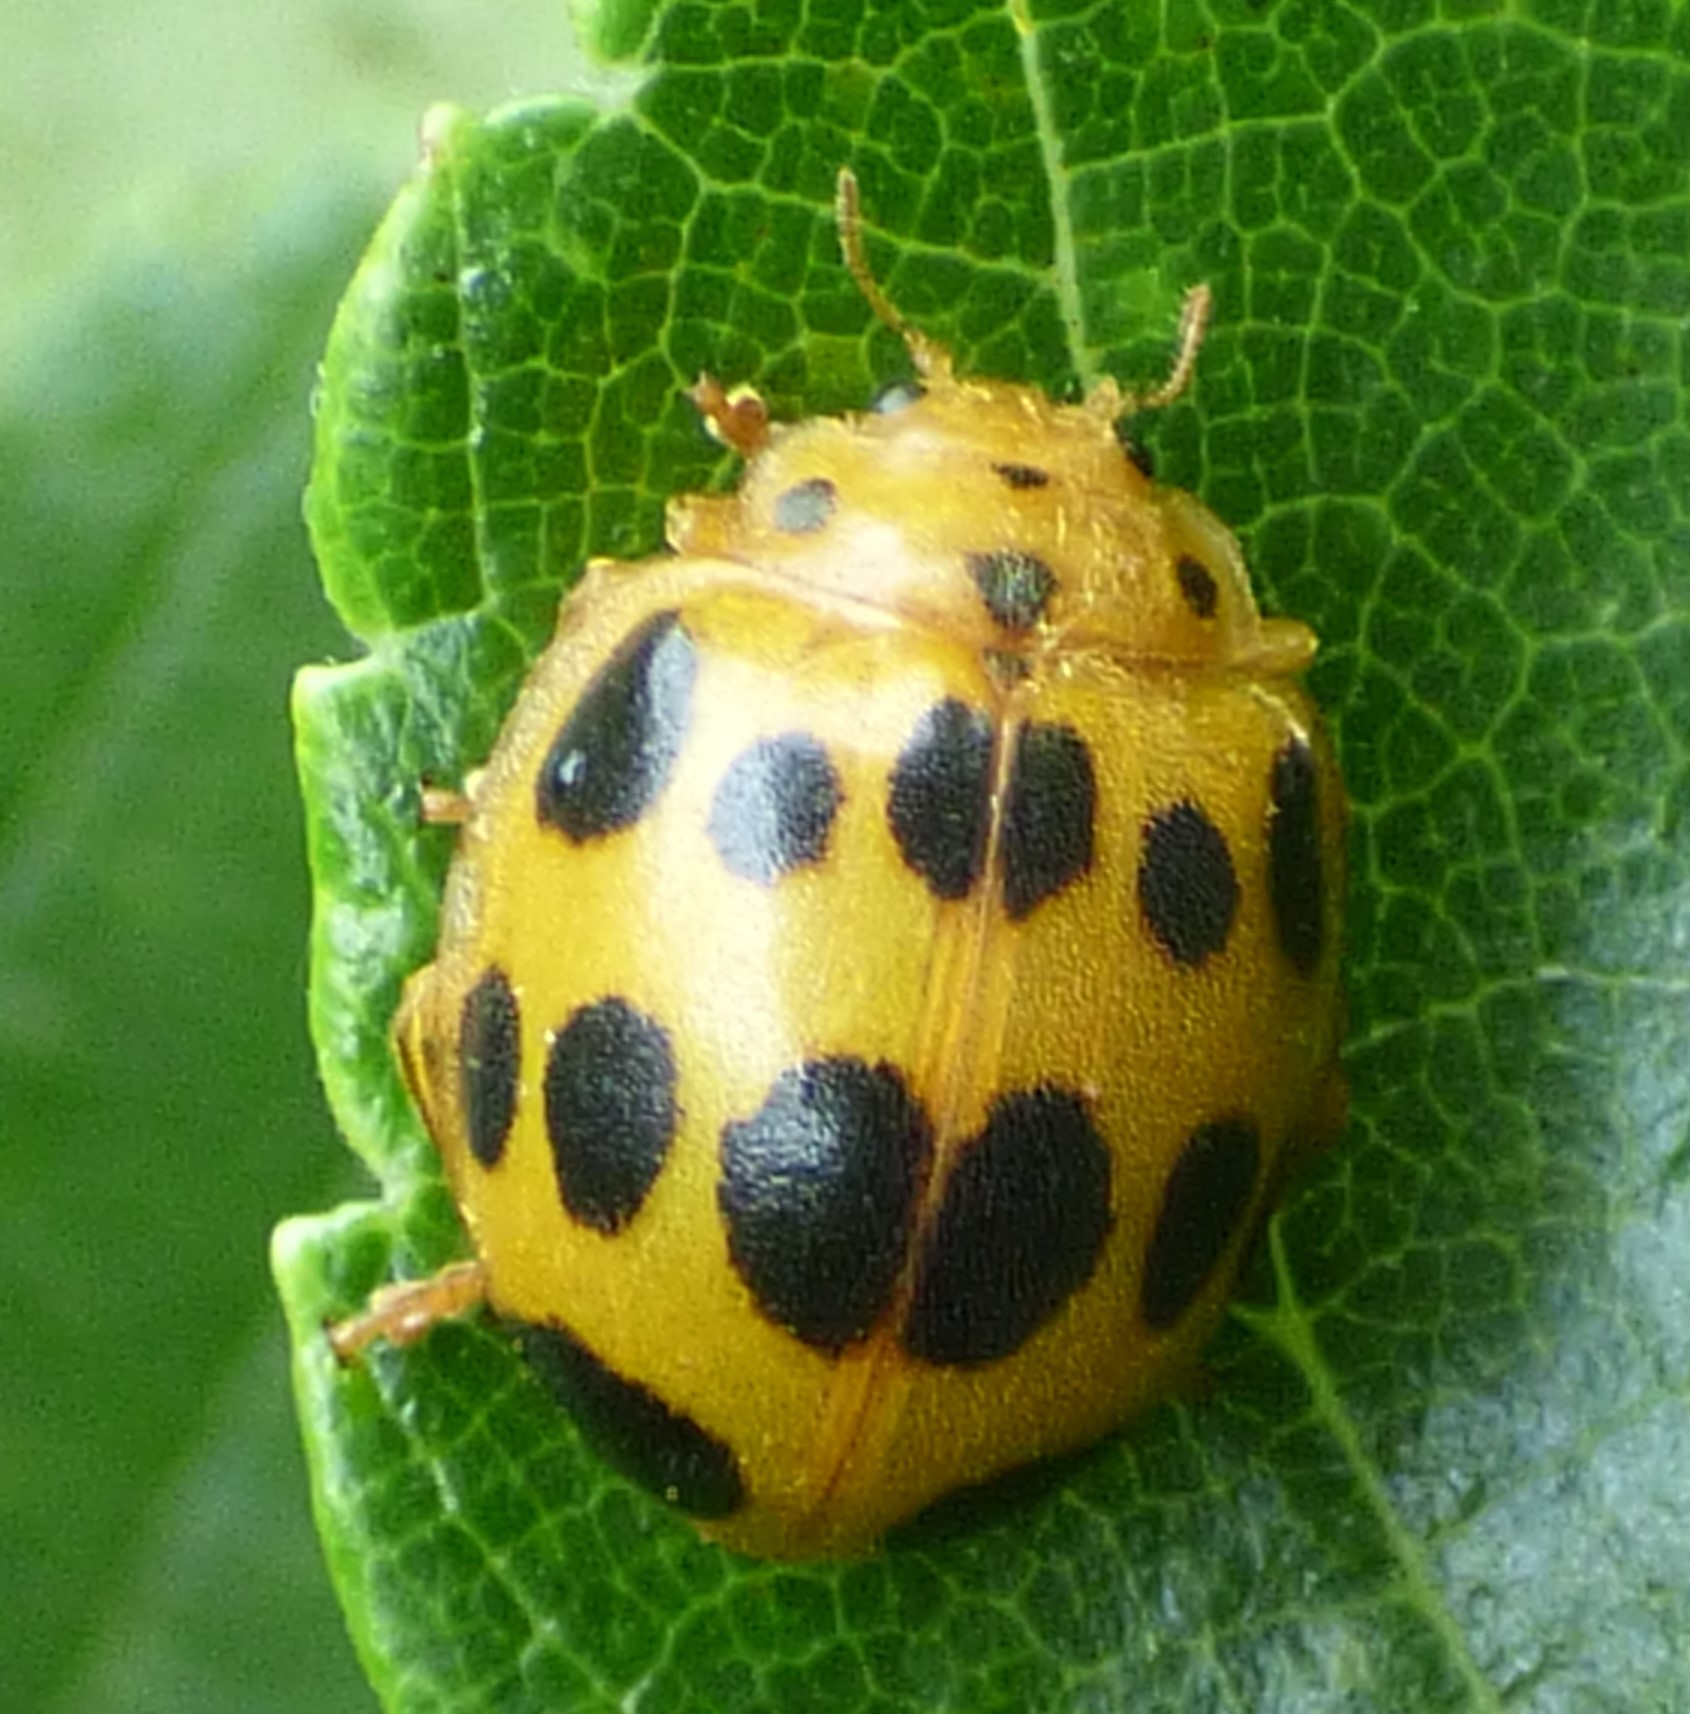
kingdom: Animalia
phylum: Arthropoda
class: Insecta
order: Coleoptera
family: Coccinellidae
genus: Epilachna
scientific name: Epilachna borealis
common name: Squash beetle
